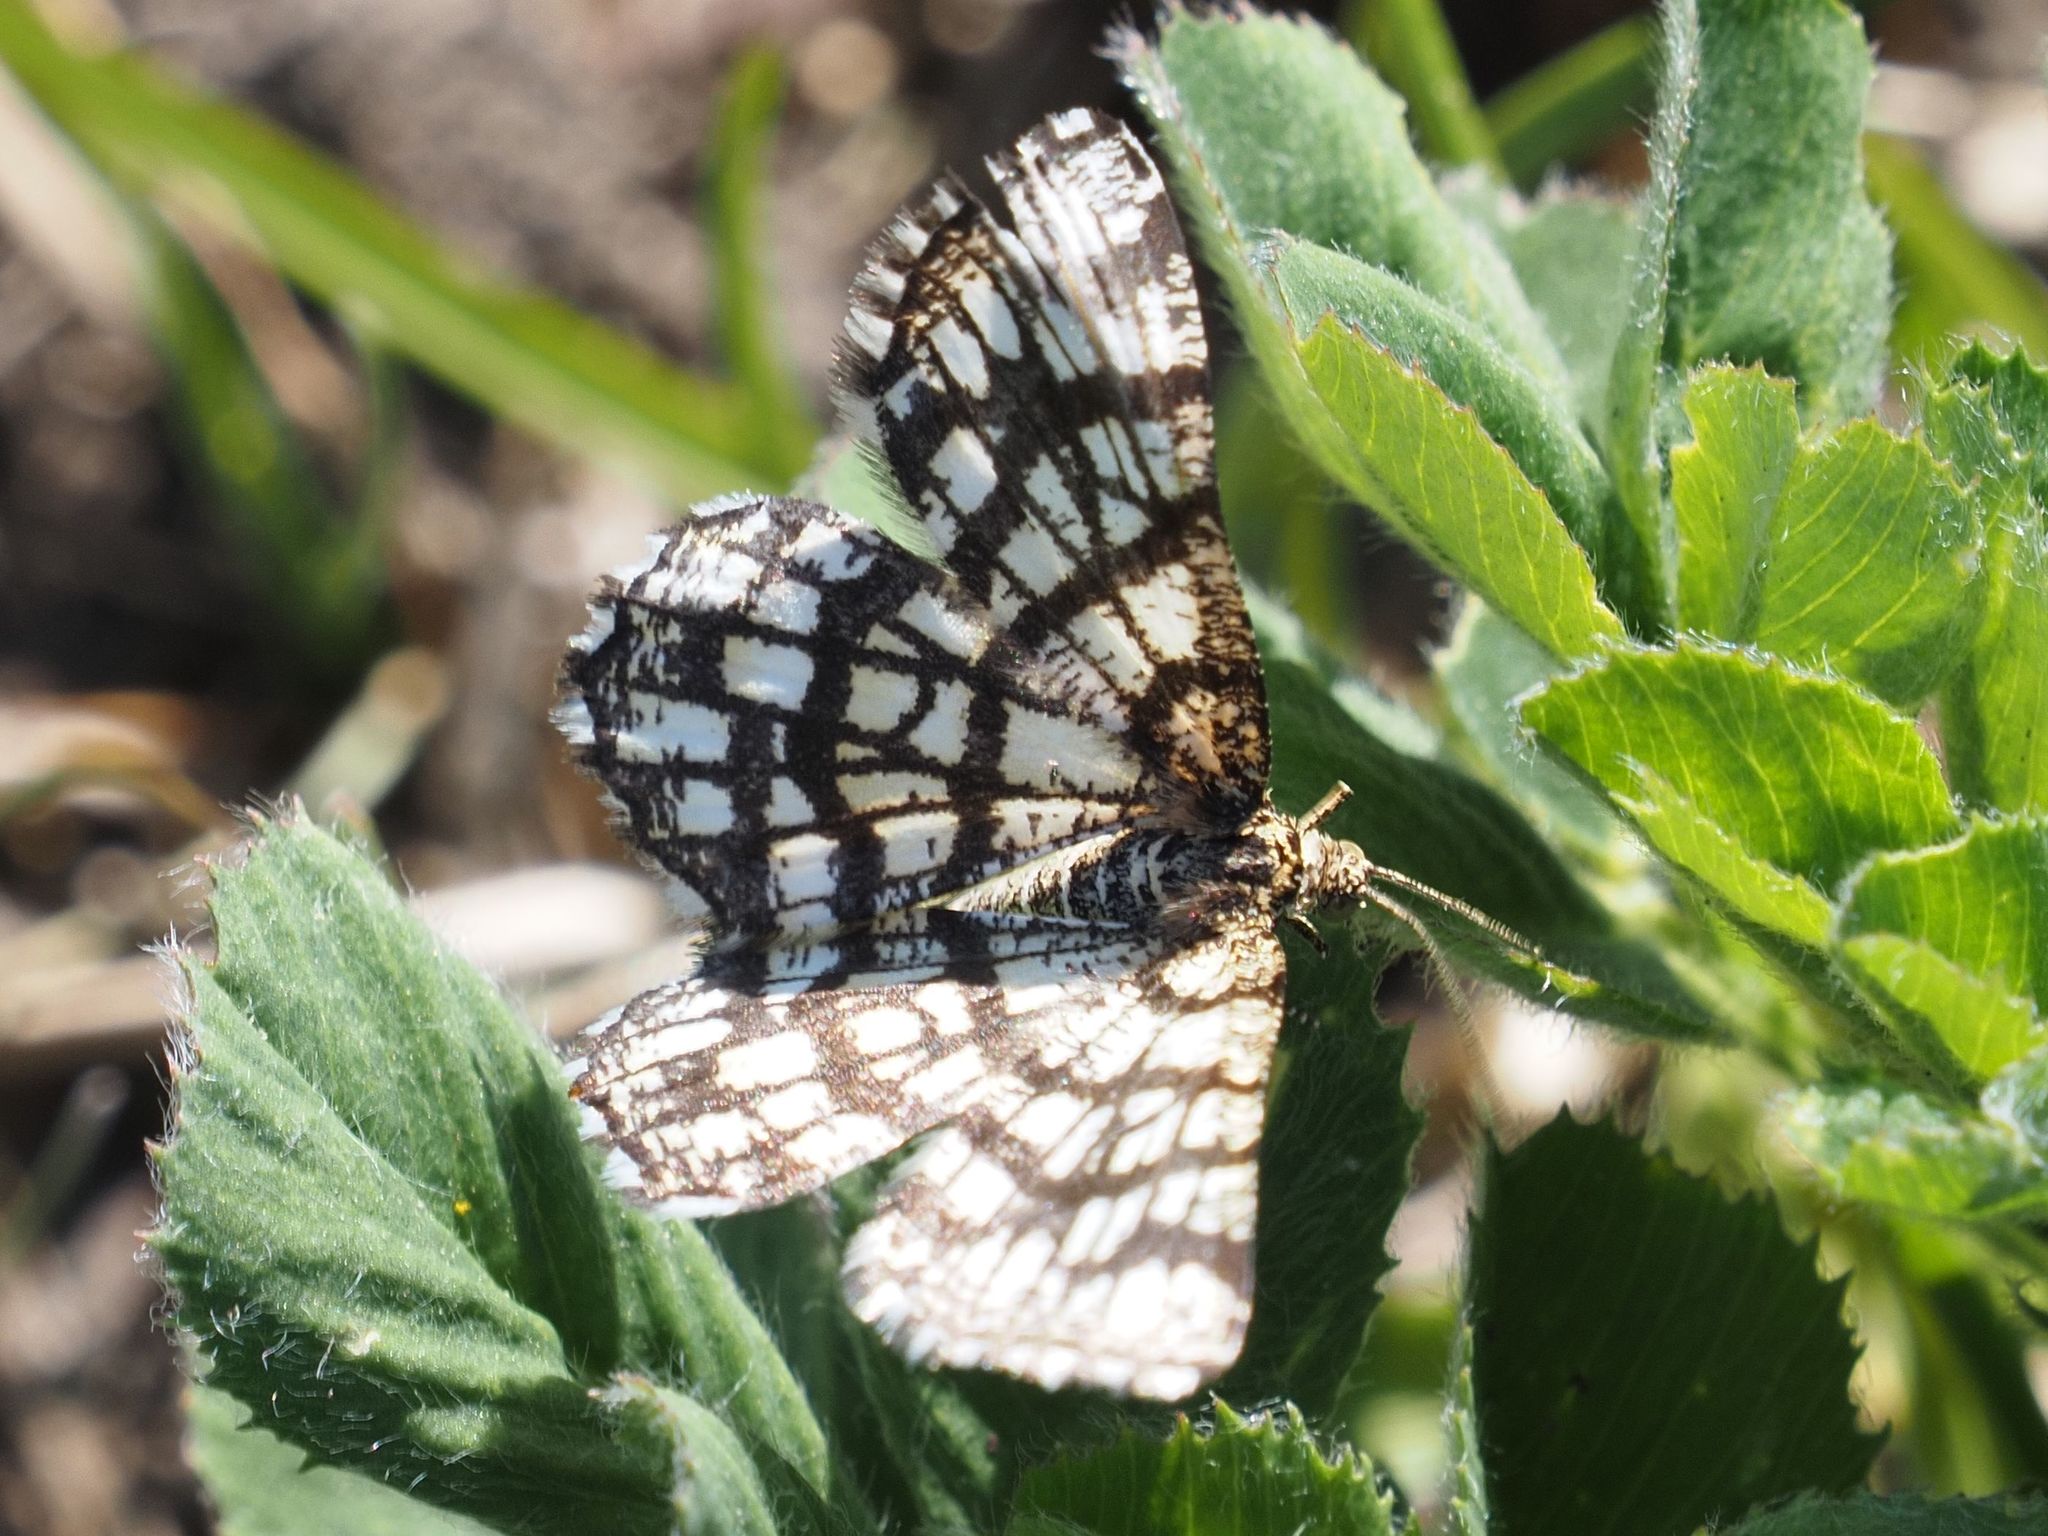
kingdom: Animalia
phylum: Arthropoda
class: Insecta
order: Lepidoptera
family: Geometridae
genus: Chiasmia
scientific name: Chiasmia clathrata
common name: Latticed heath
